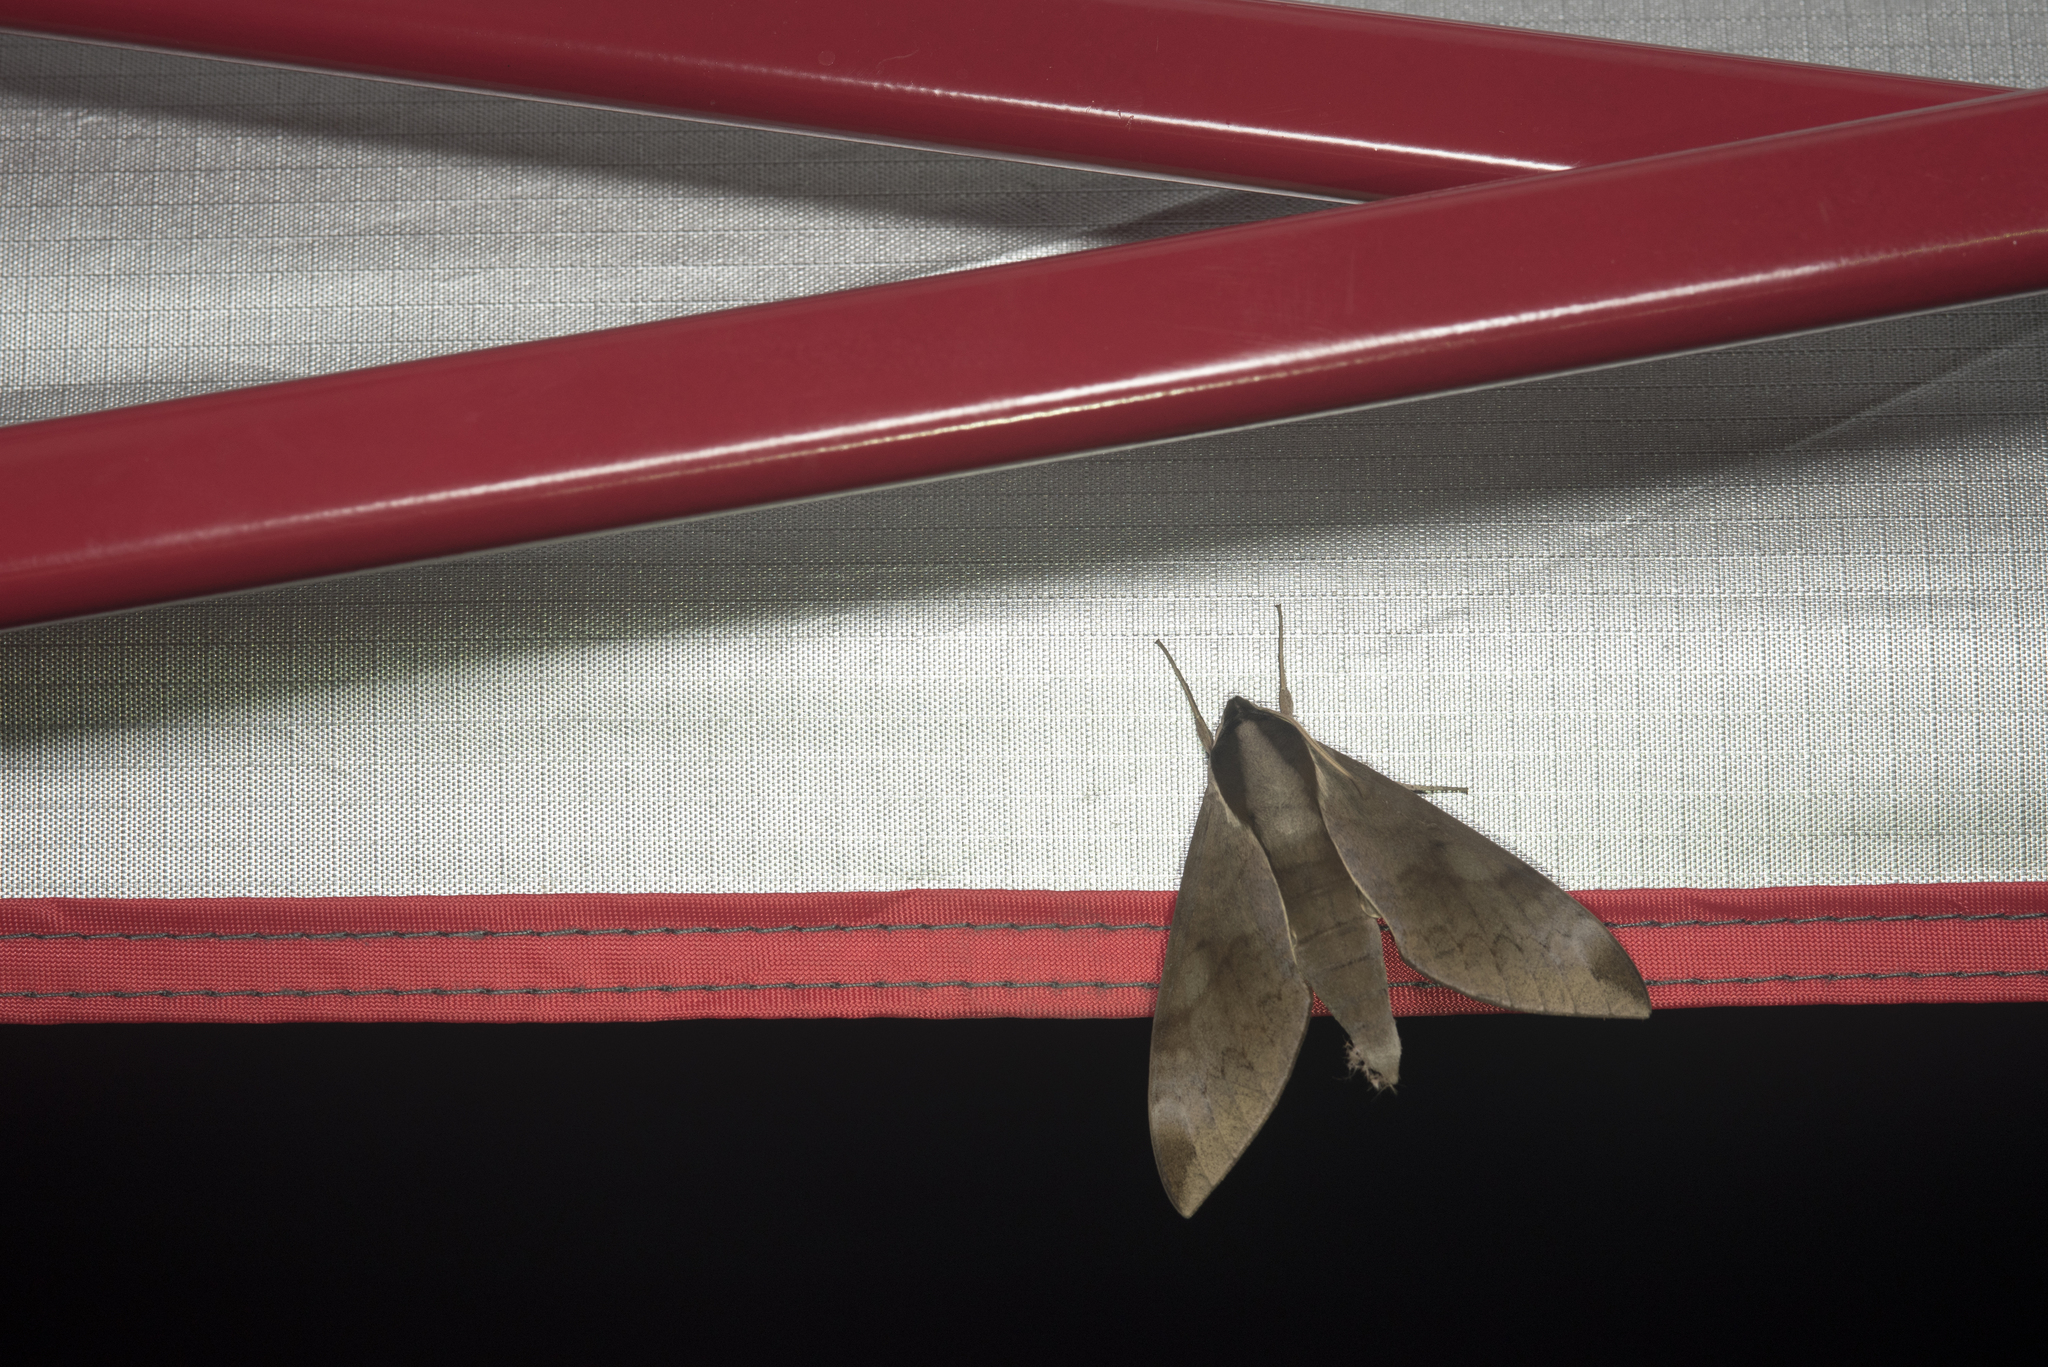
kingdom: Animalia
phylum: Arthropoda
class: Insecta
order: Lepidoptera
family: Sphingidae
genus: Acosmerycoides
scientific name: Acosmerycoides harterti
